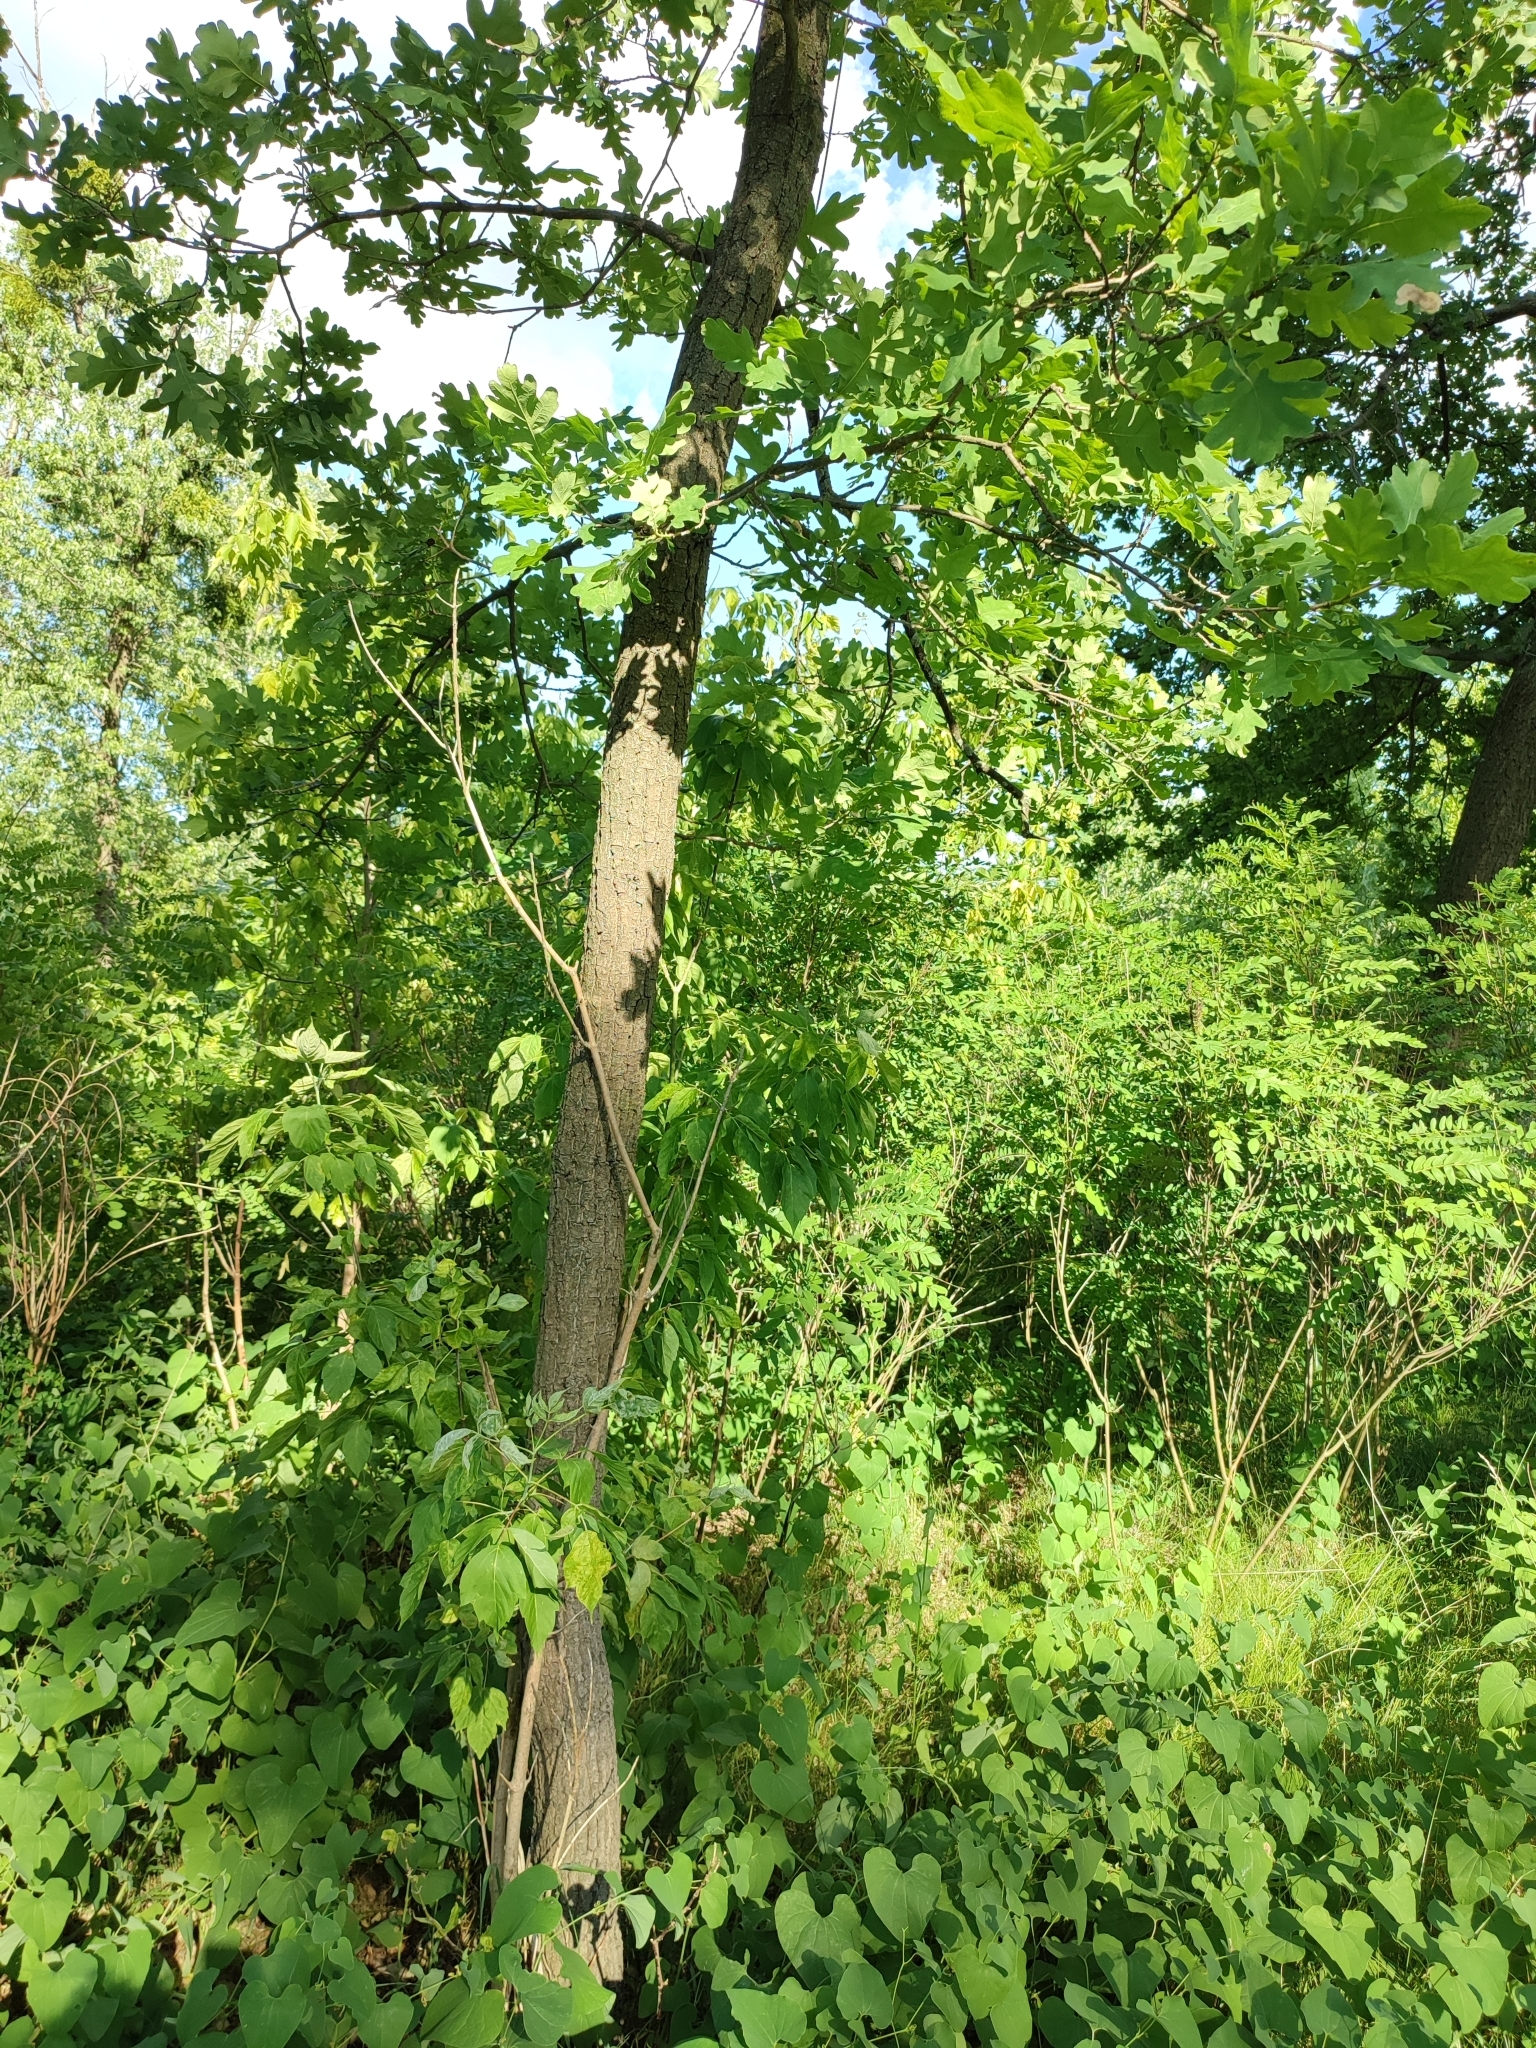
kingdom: Plantae
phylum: Tracheophyta
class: Magnoliopsida
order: Fagales
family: Fagaceae
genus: Quercus
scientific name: Quercus robur
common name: Pedunculate oak
